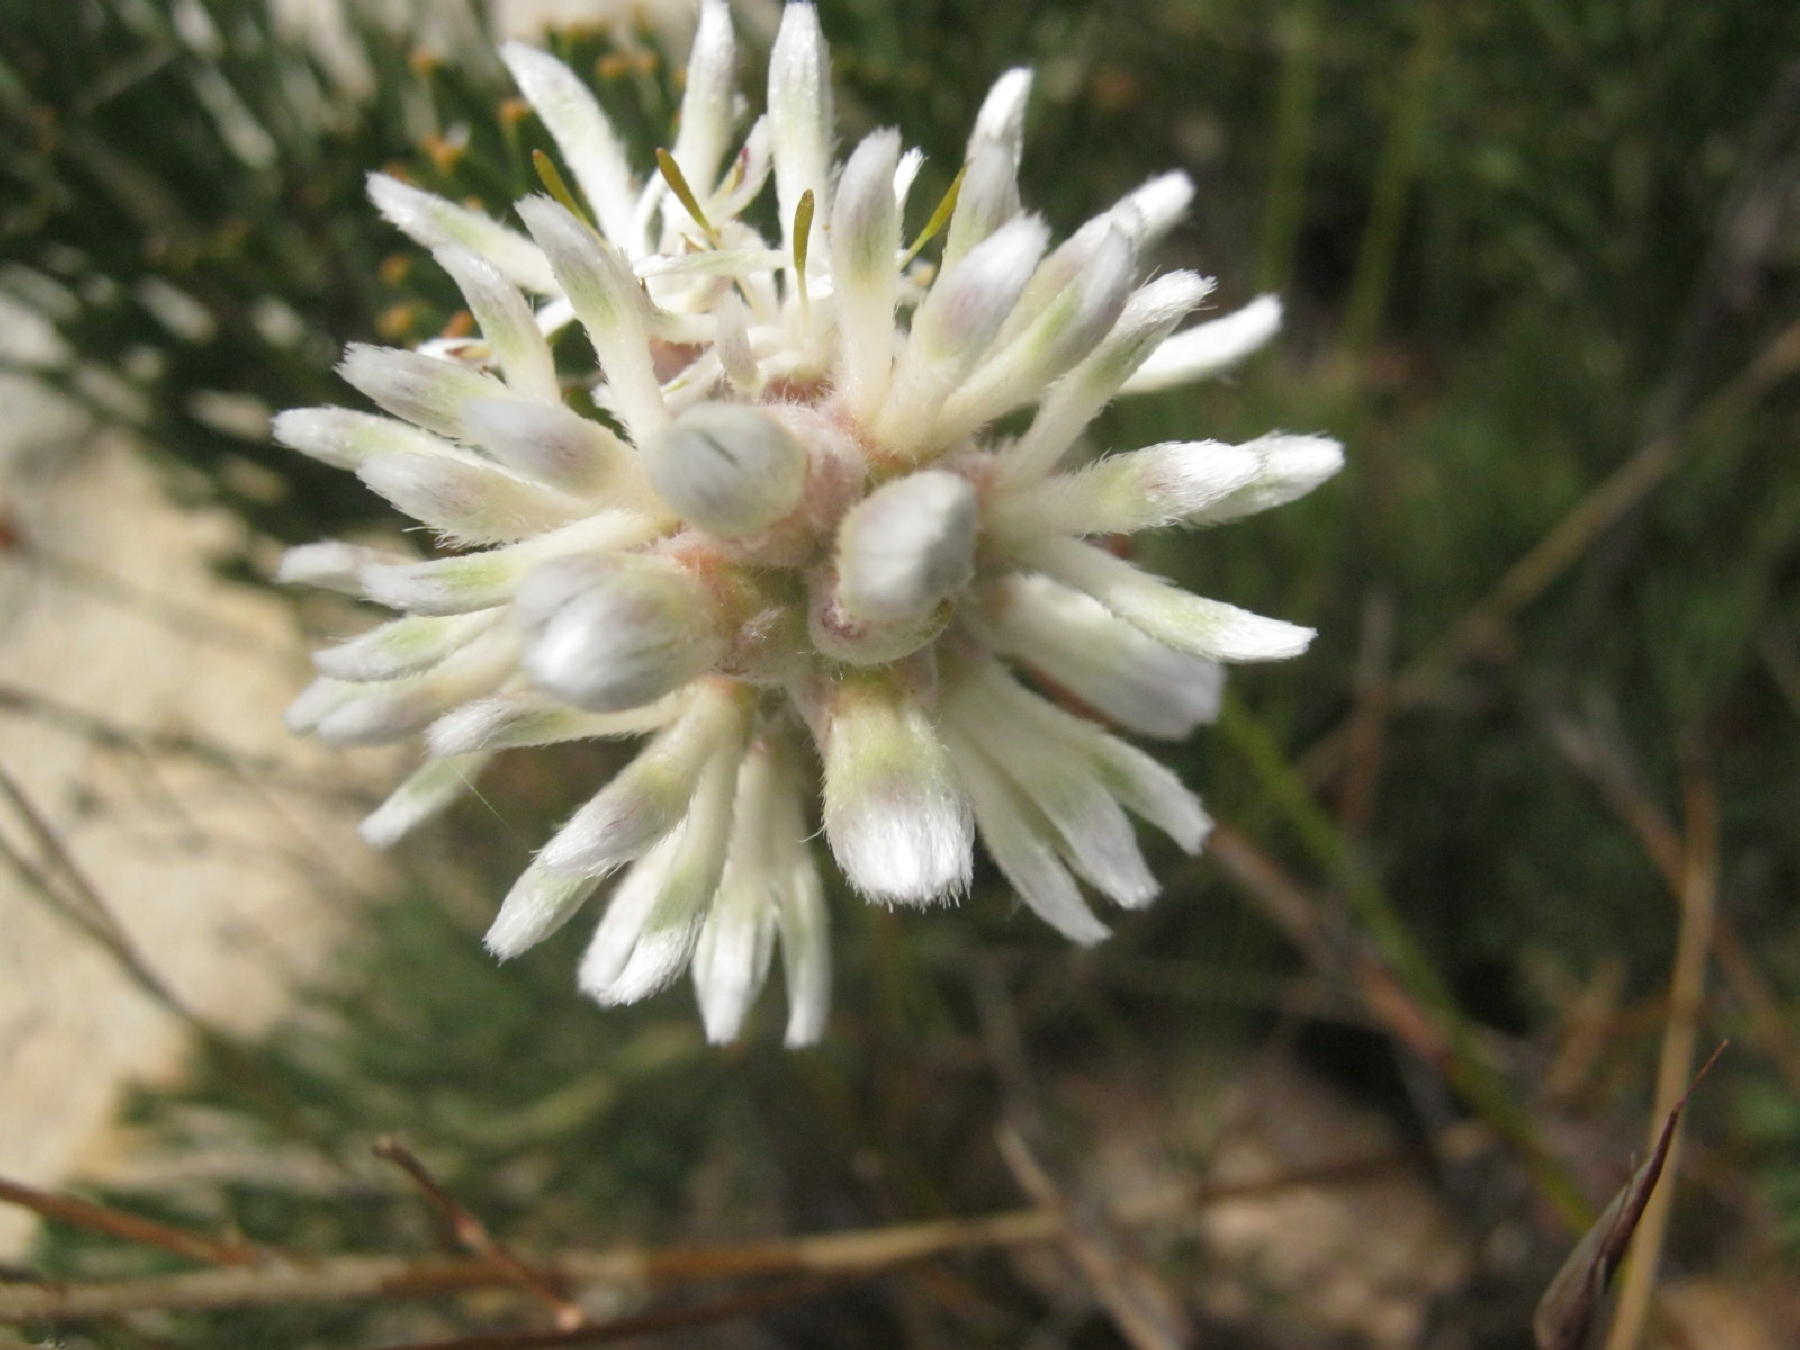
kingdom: Plantae
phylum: Tracheophyta
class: Magnoliopsida
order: Proteales
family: Proteaceae
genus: Paranomus
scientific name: Paranomus dregei
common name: Scented sceptre
